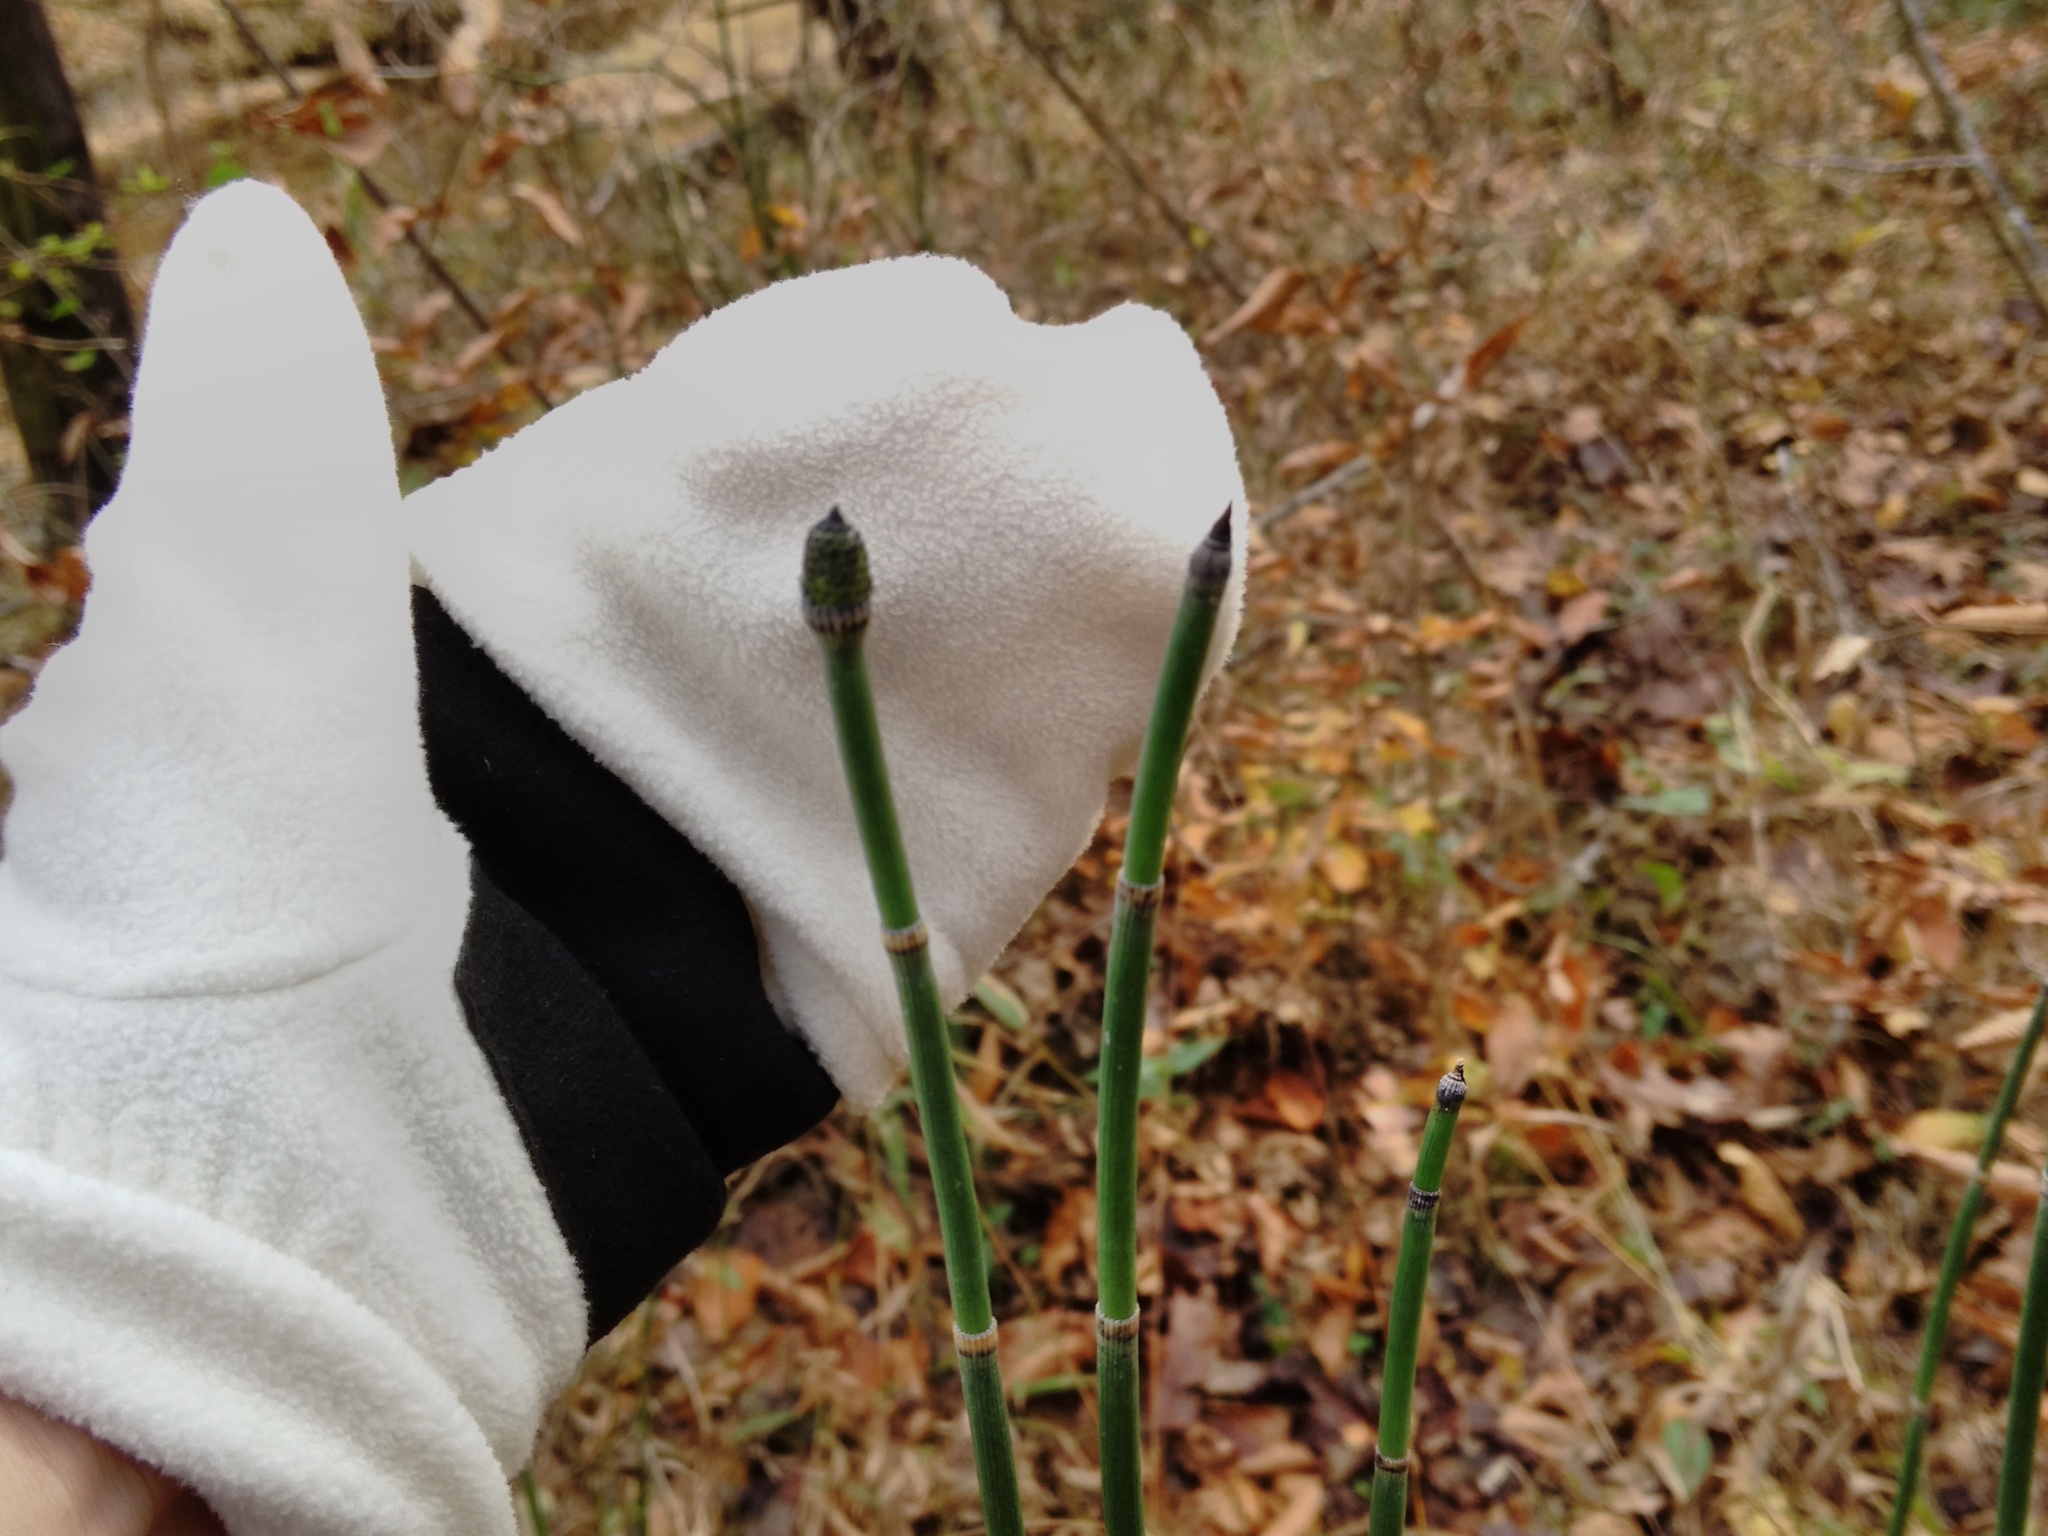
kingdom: Plantae
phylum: Tracheophyta
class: Polypodiopsida
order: Equisetales
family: Equisetaceae
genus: Equisetum
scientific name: Equisetum hyemale
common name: Rough horsetail
